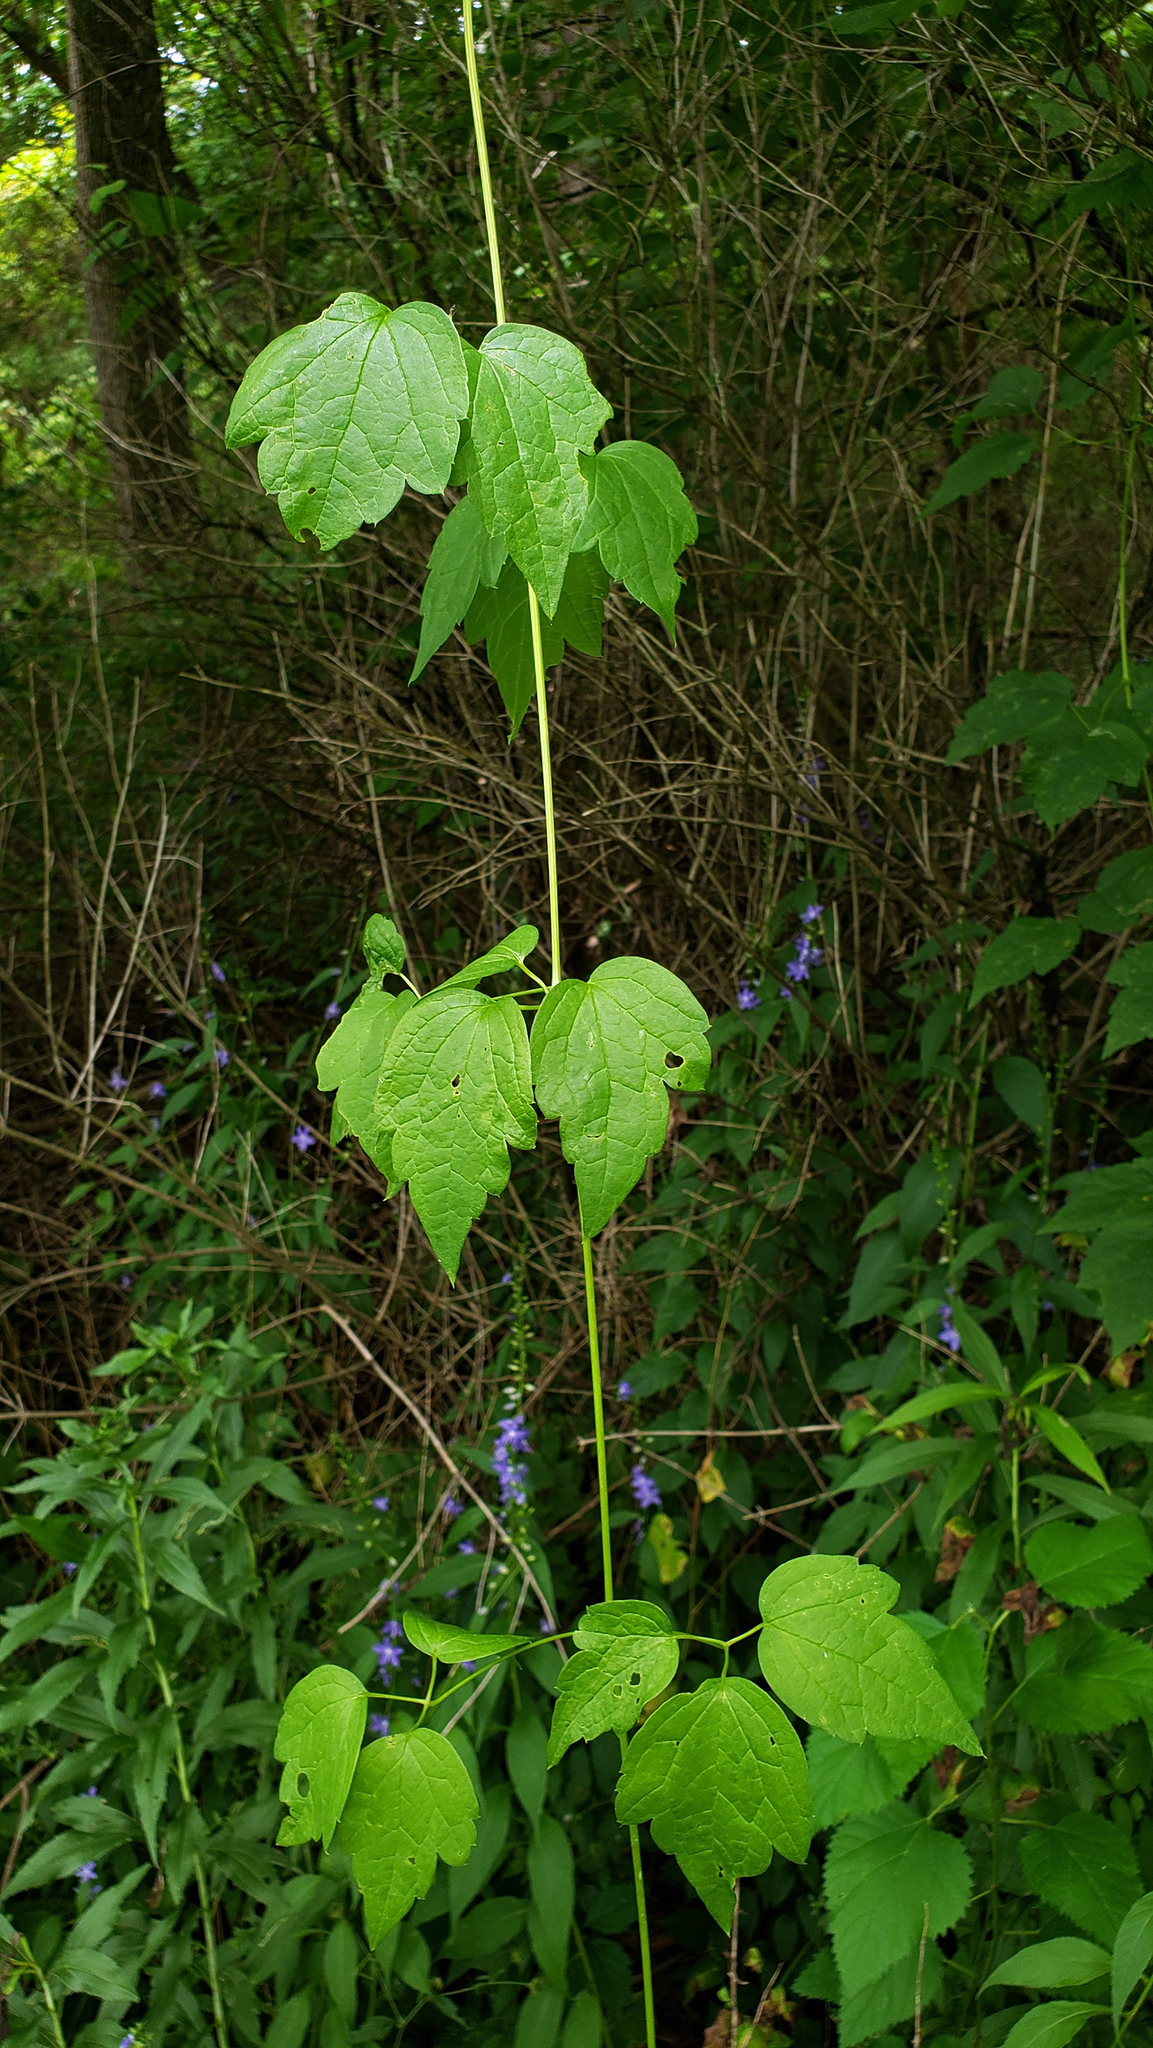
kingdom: Plantae
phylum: Tracheophyta
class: Magnoliopsida
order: Ranunculales
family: Ranunculaceae
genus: Clematis
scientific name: Clematis virginiana
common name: Virgin's-bower
